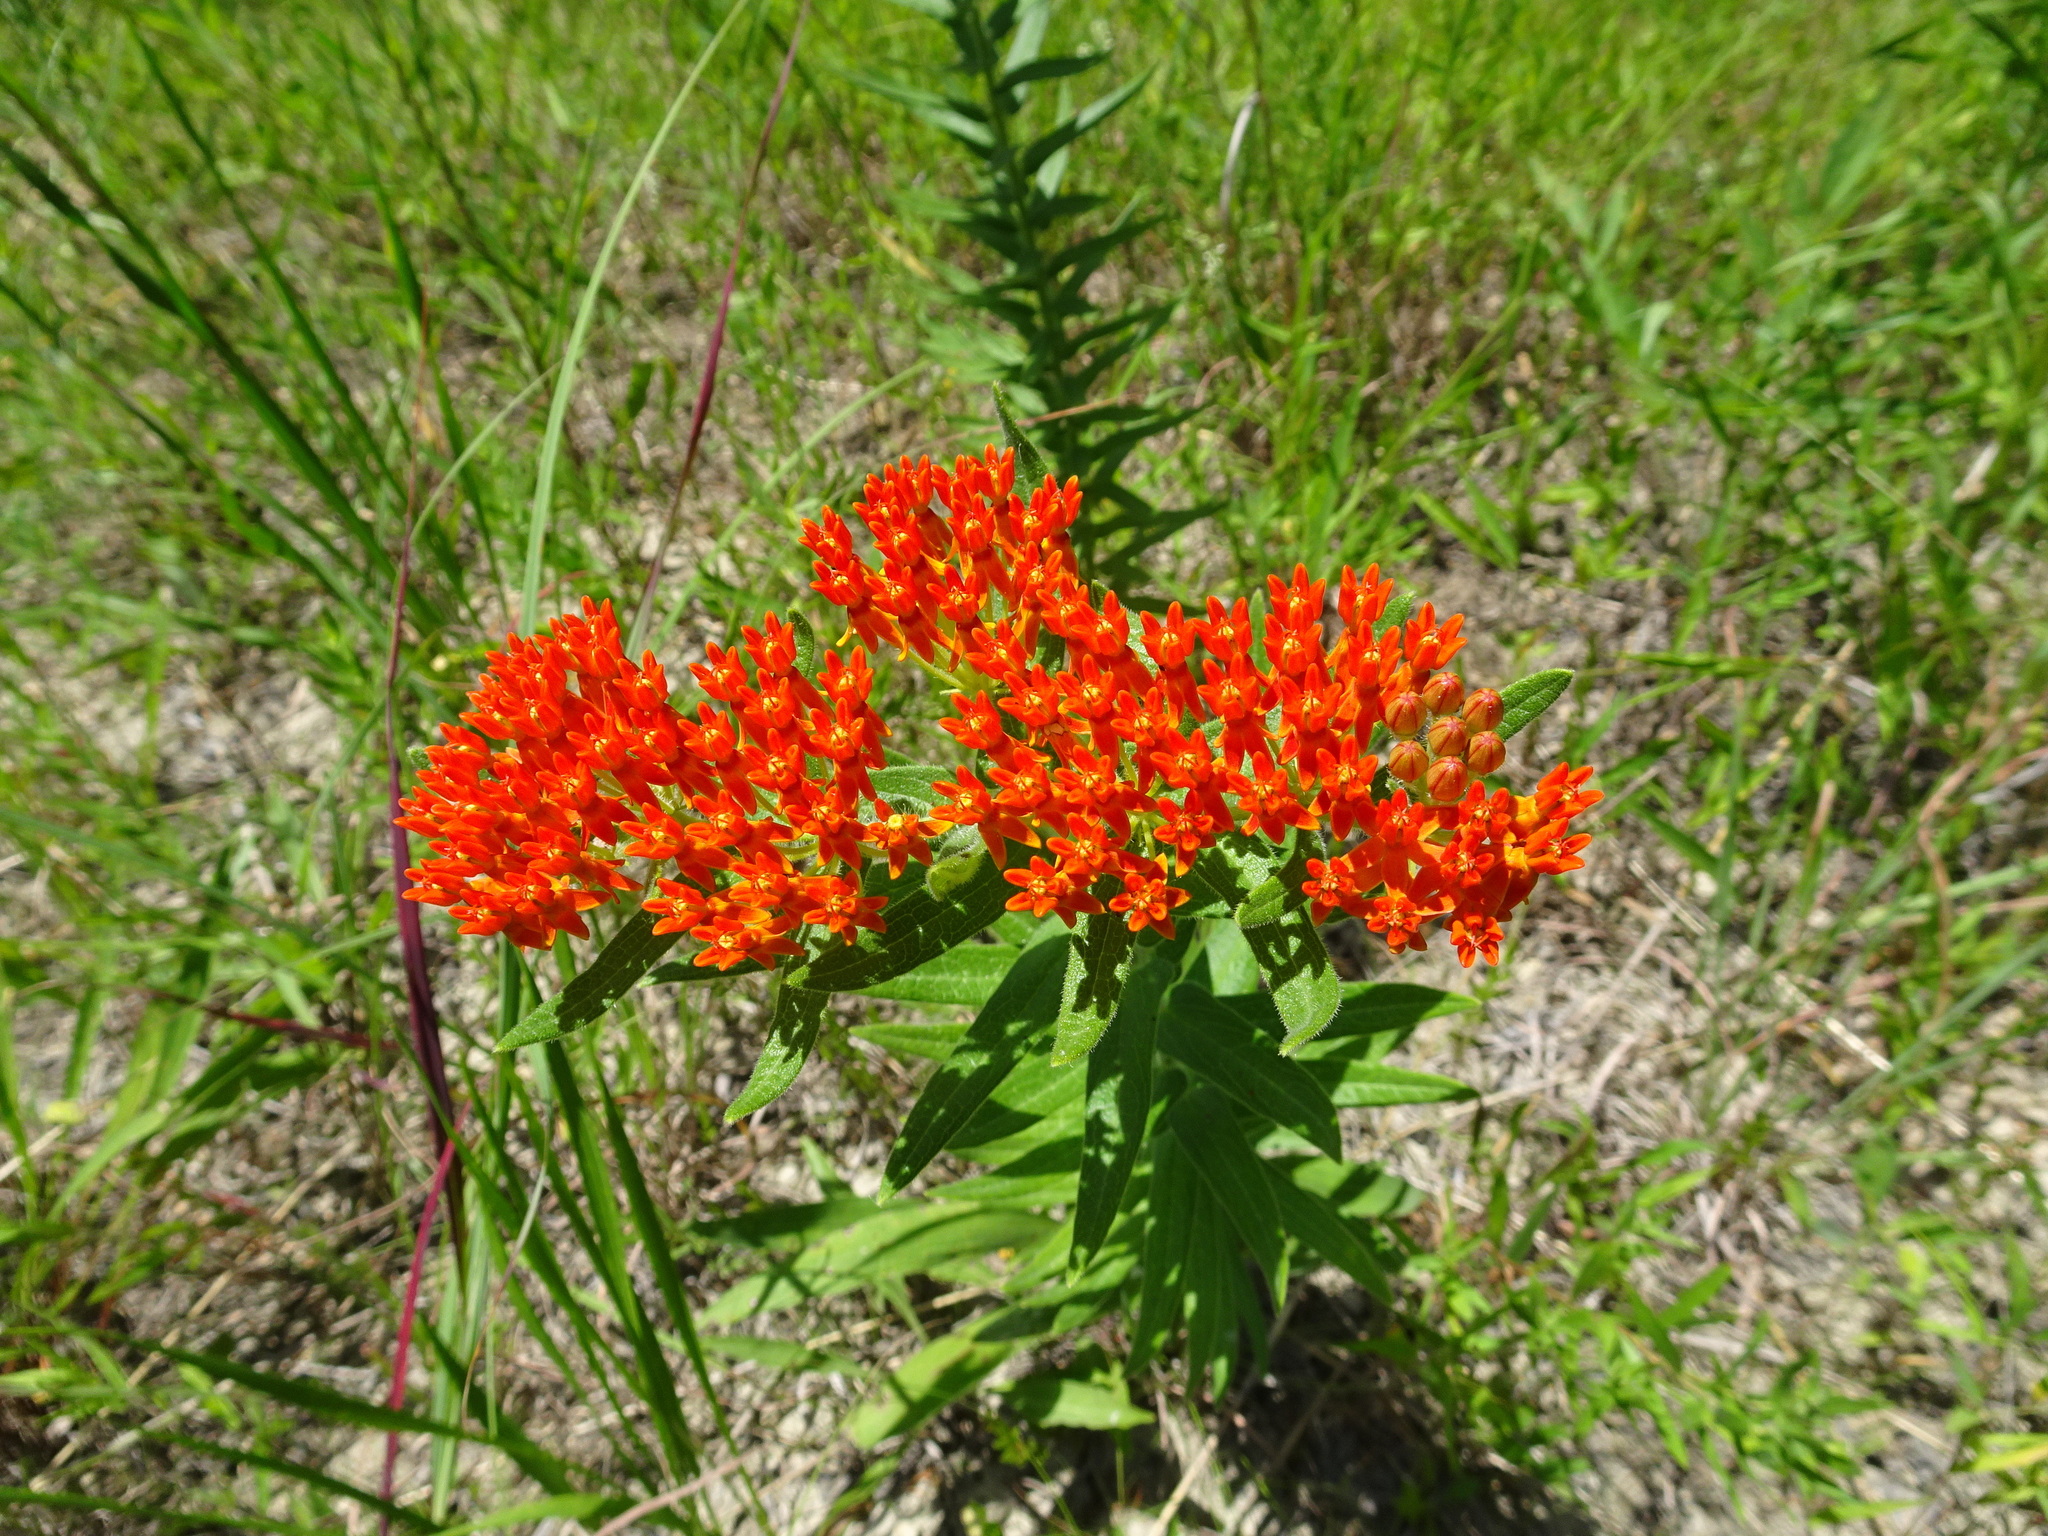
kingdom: Plantae
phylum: Tracheophyta
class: Magnoliopsida
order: Gentianales
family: Apocynaceae
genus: Asclepias
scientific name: Asclepias tuberosa
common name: Butterfly milkweed
